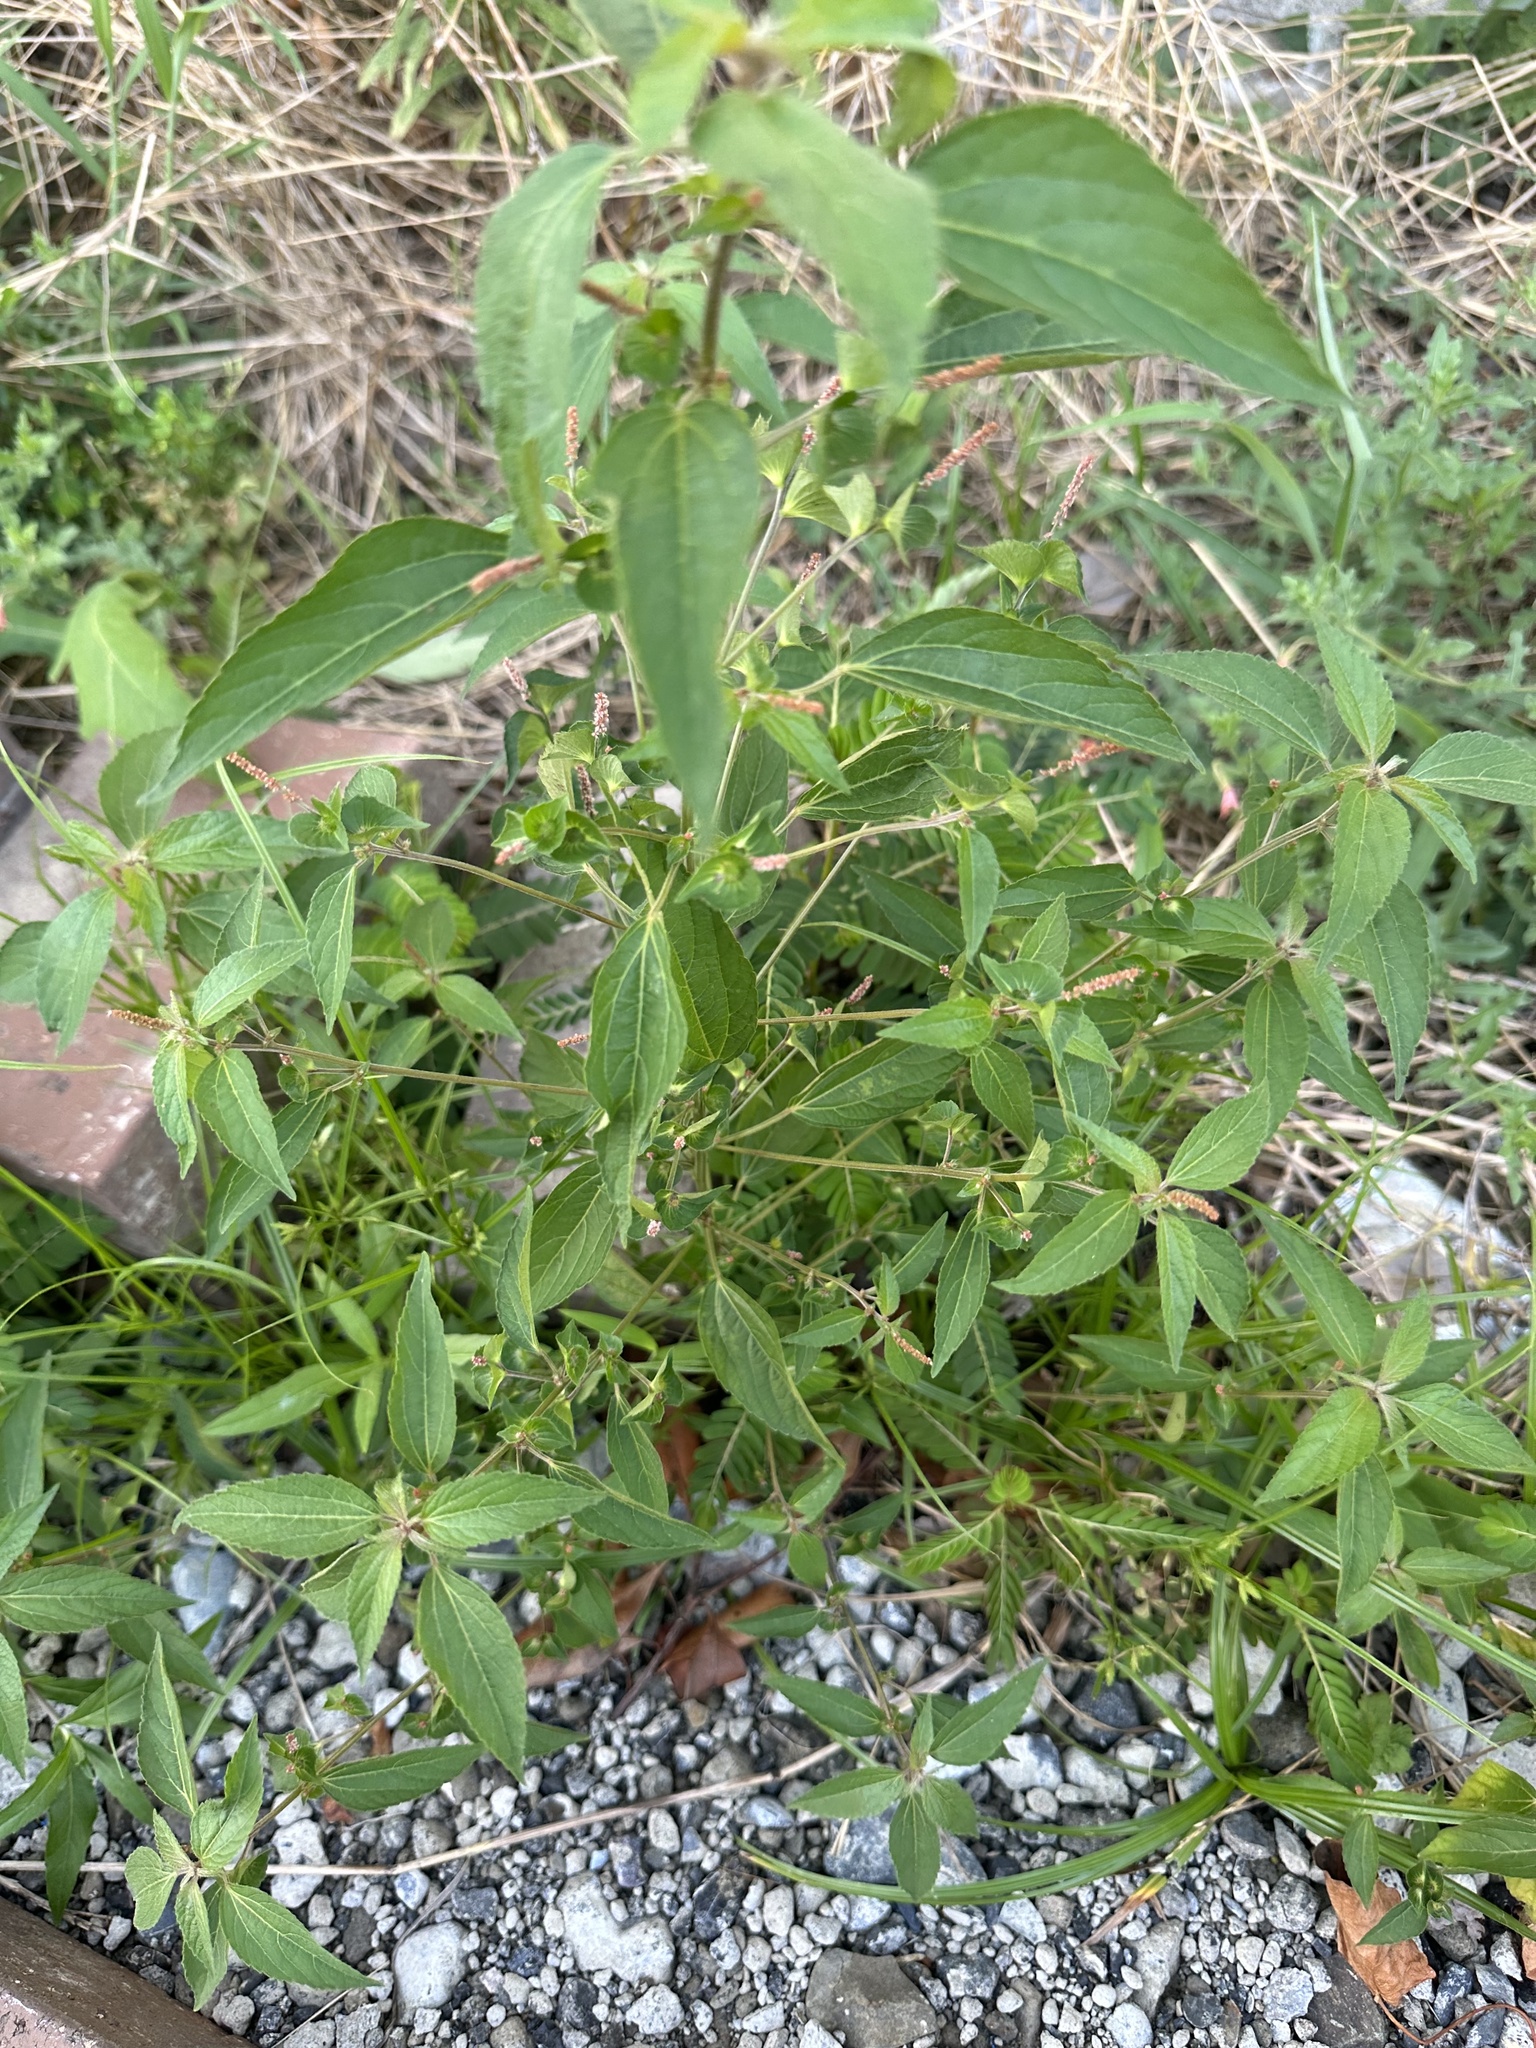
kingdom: Plantae
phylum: Tracheophyta
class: Magnoliopsida
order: Malpighiales
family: Euphorbiaceae
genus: Acalypha
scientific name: Acalypha australis
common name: Asian copperleaf
